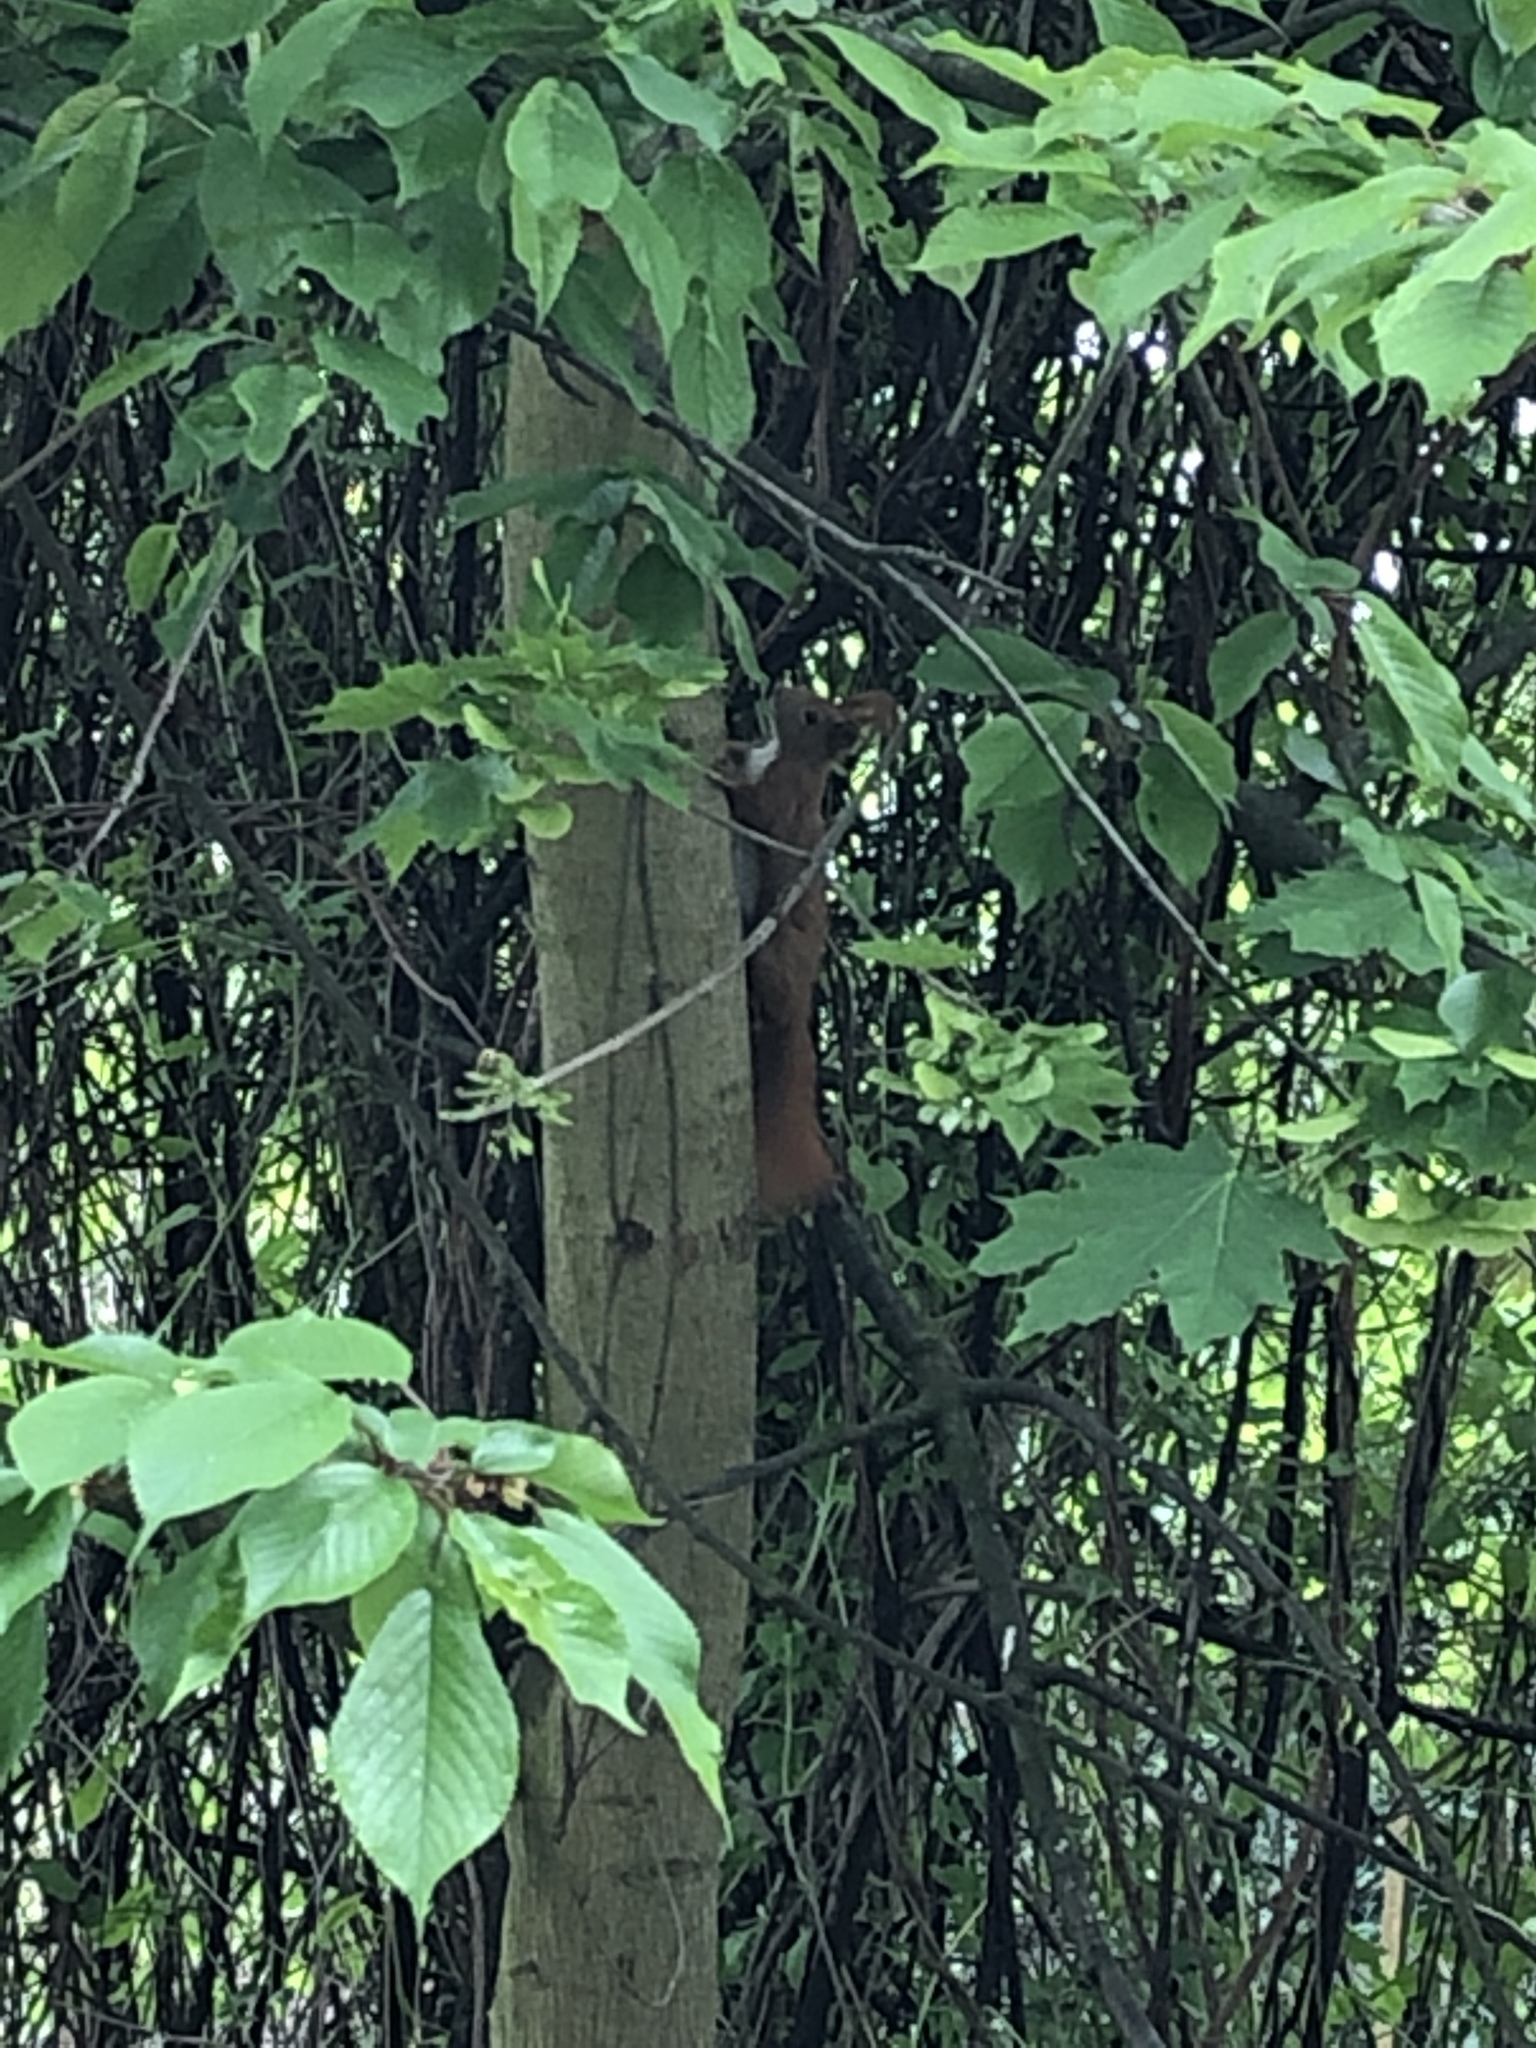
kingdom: Animalia
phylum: Chordata
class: Mammalia
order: Rodentia
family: Sciuridae
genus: Sciurus
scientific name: Sciurus vulgaris
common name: Eurasian red squirrel
